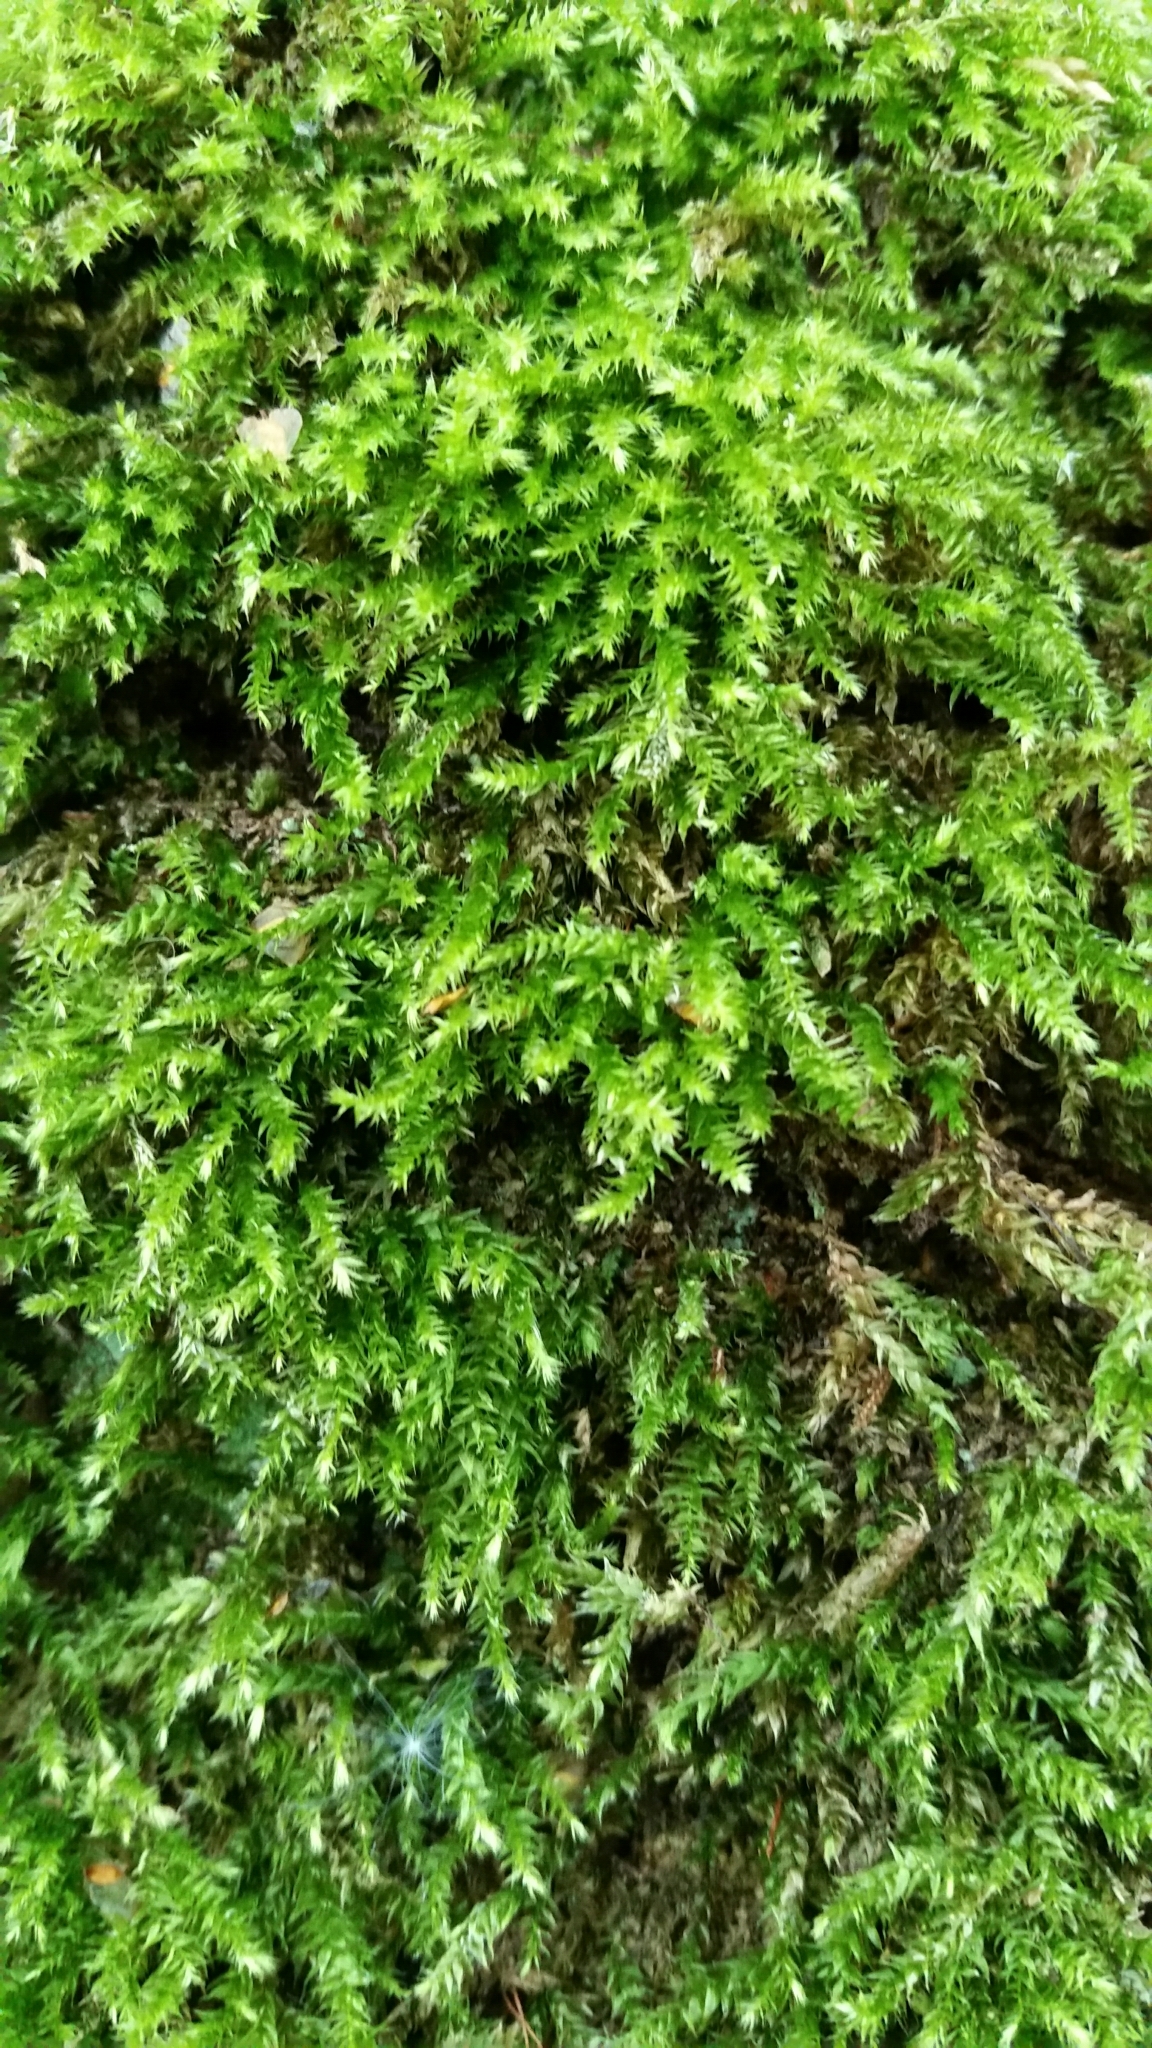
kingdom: Plantae
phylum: Bryophyta
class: Bryopsida
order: Hypnales
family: Brachytheciaceae
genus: Rhynchostegium
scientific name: Rhynchostegium confertum
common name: Clustered feather-moss
